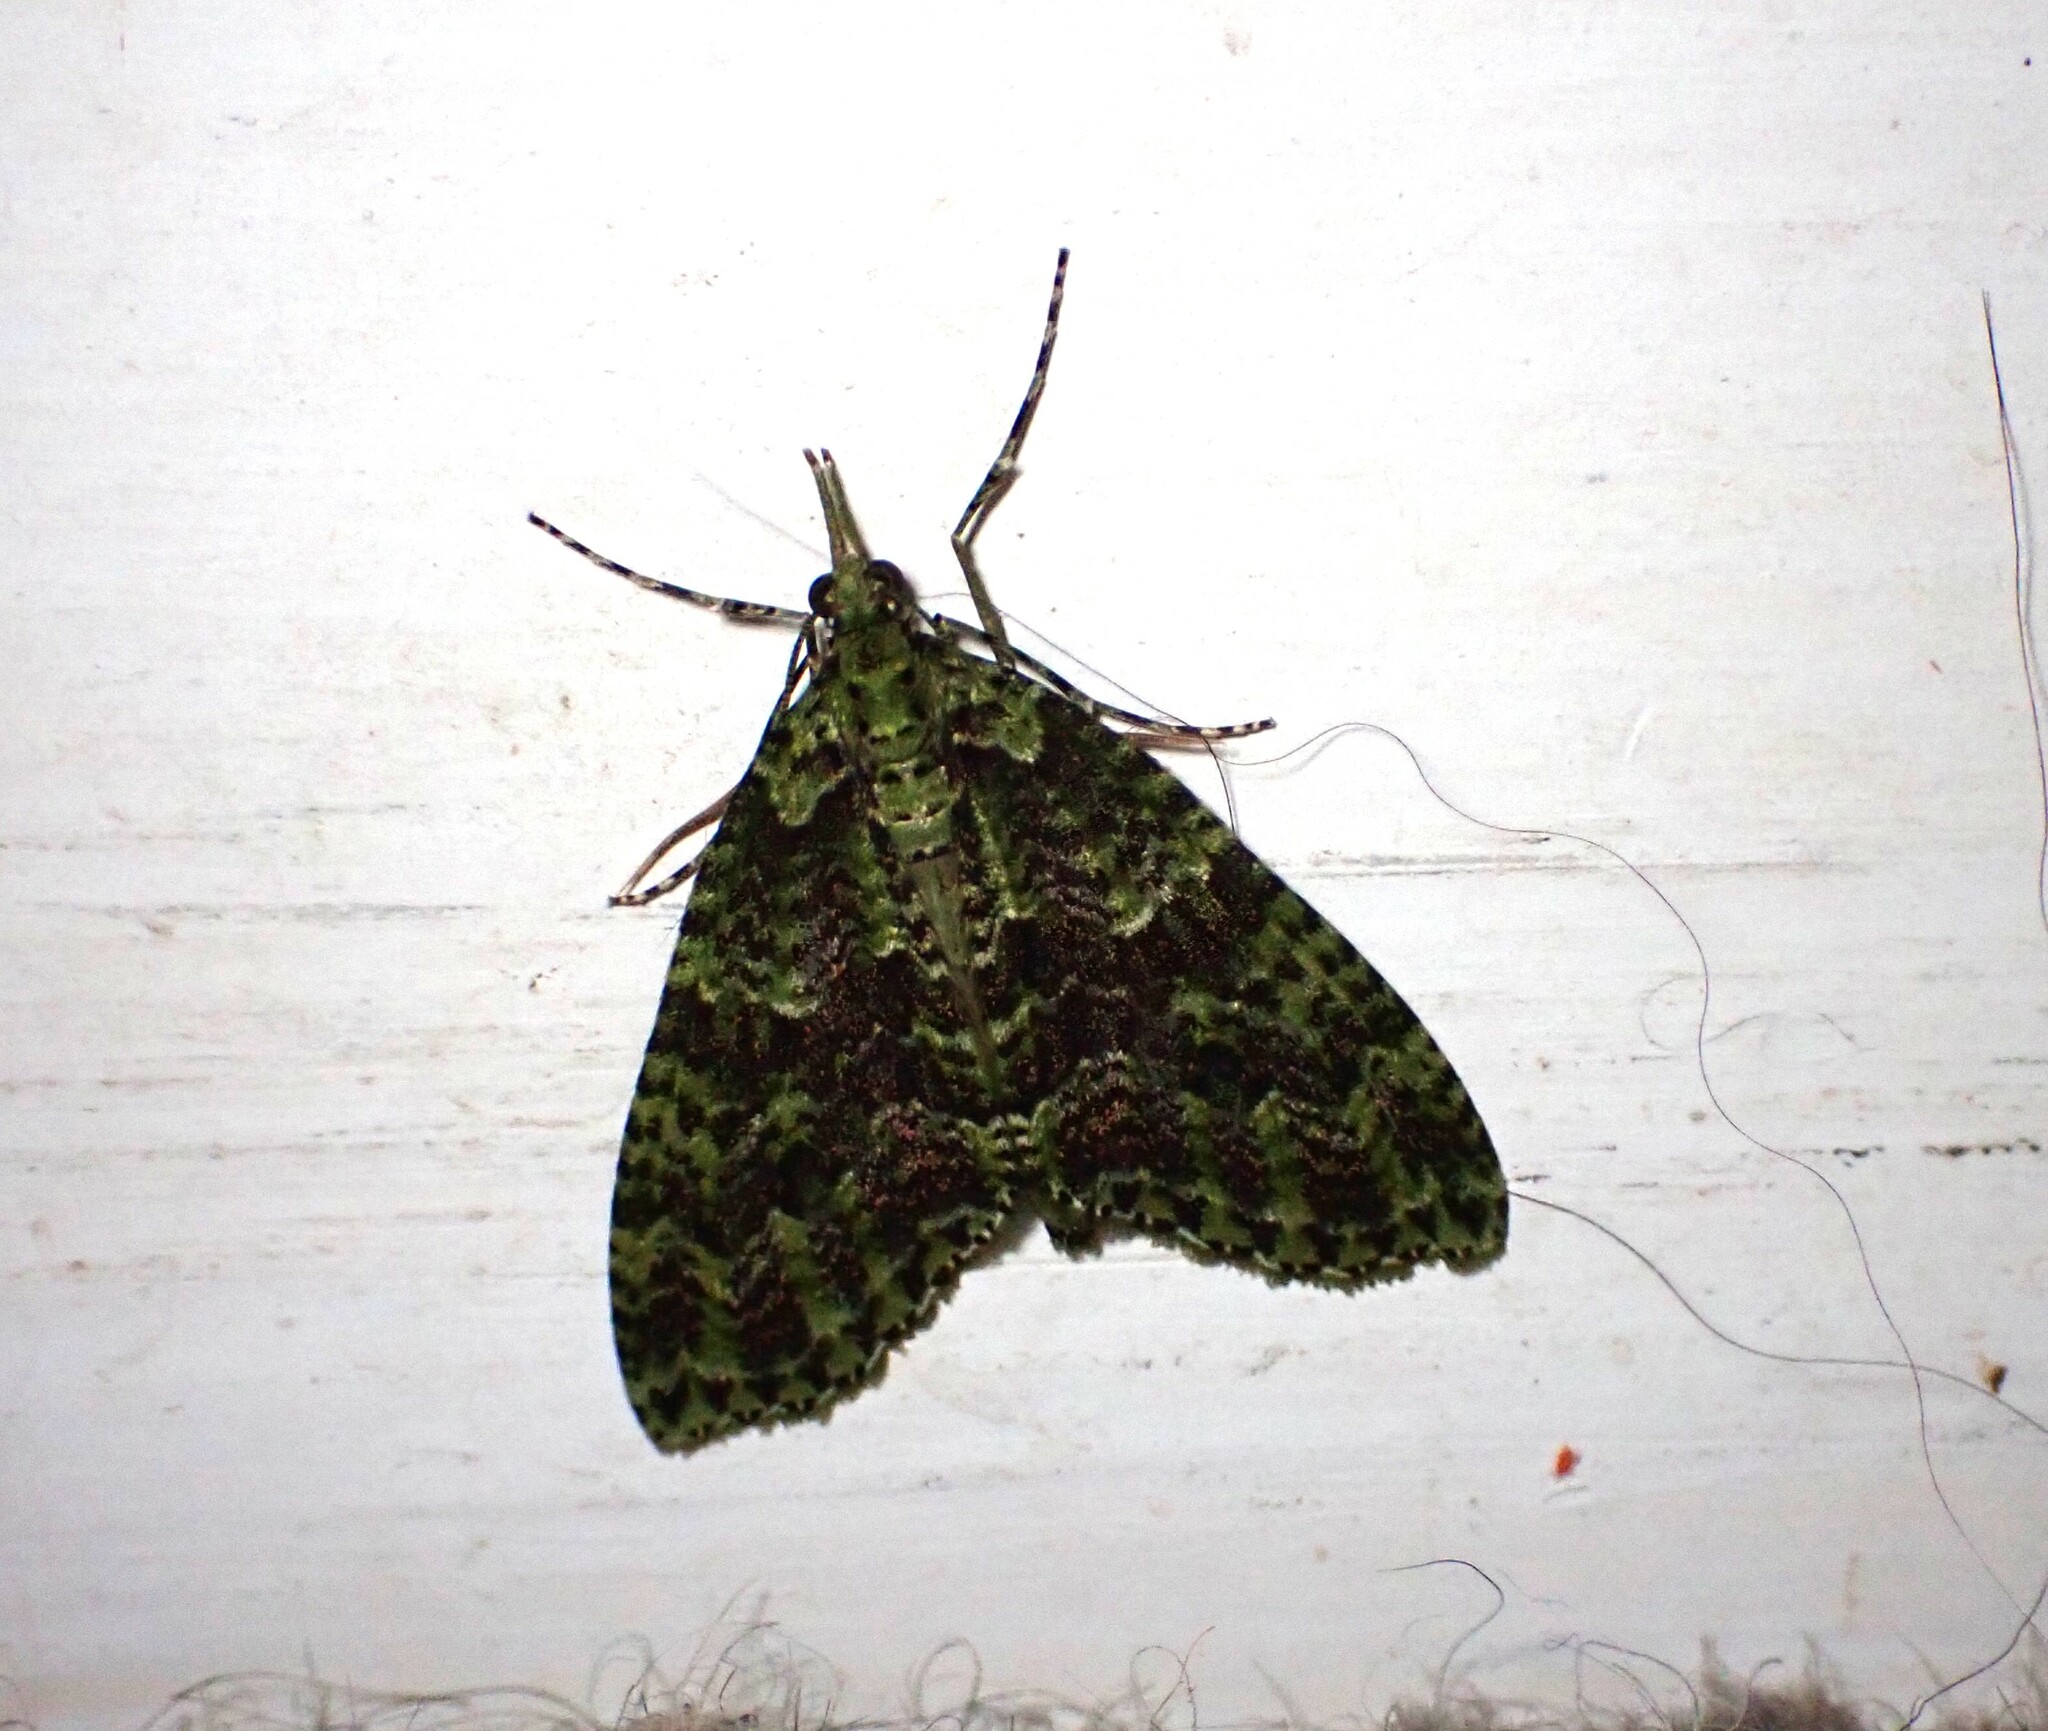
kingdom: Animalia
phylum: Arthropoda
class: Insecta
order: Lepidoptera
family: Geometridae
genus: Tatosoma
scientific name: Tatosoma tipulata
